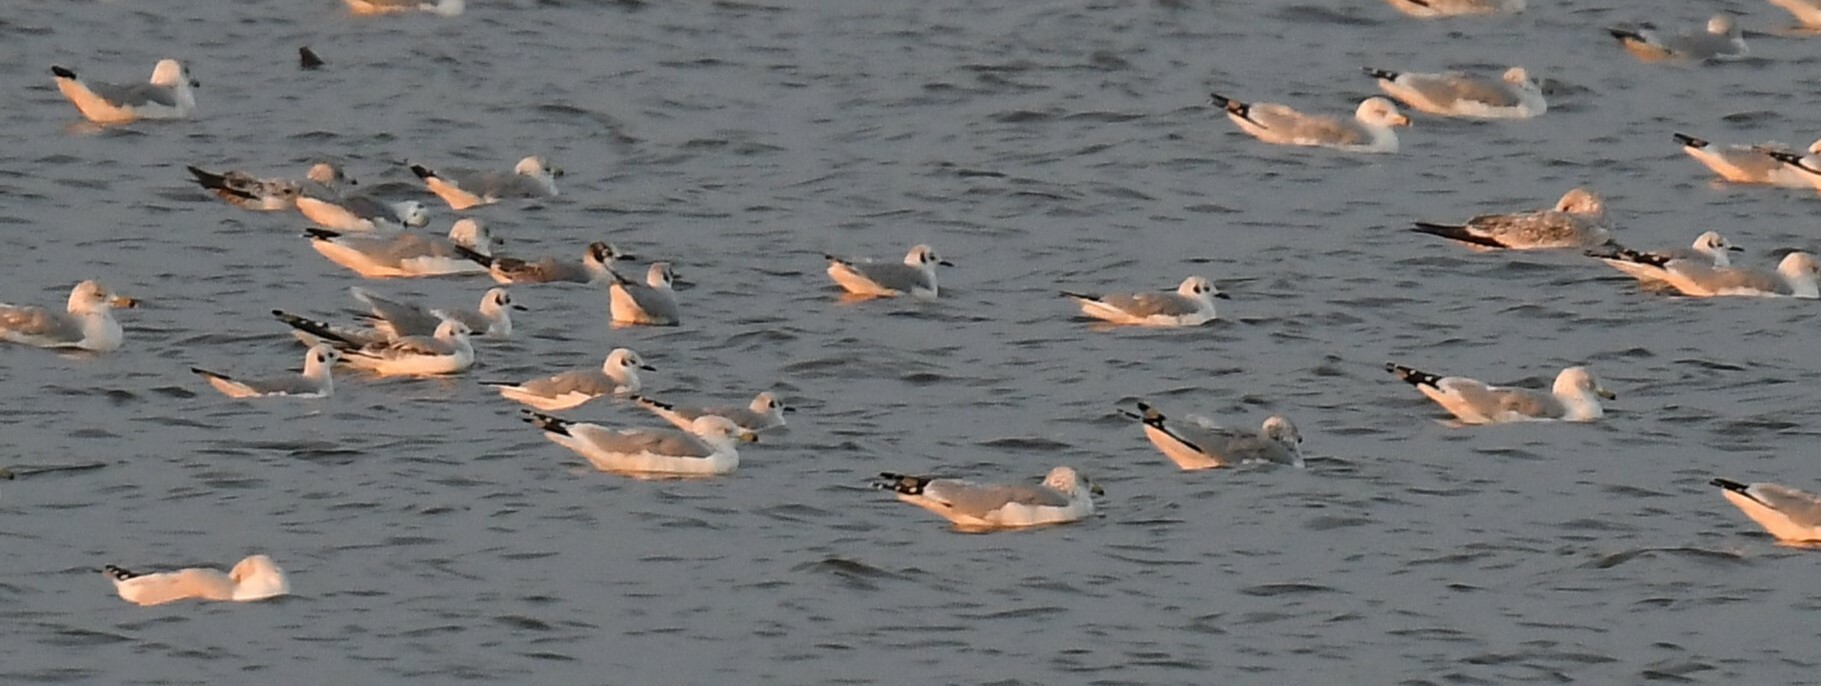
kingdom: Animalia
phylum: Chordata
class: Aves
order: Charadriiformes
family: Laridae
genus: Chroicocephalus
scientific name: Chroicocephalus philadelphia
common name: Bonaparte's gull
